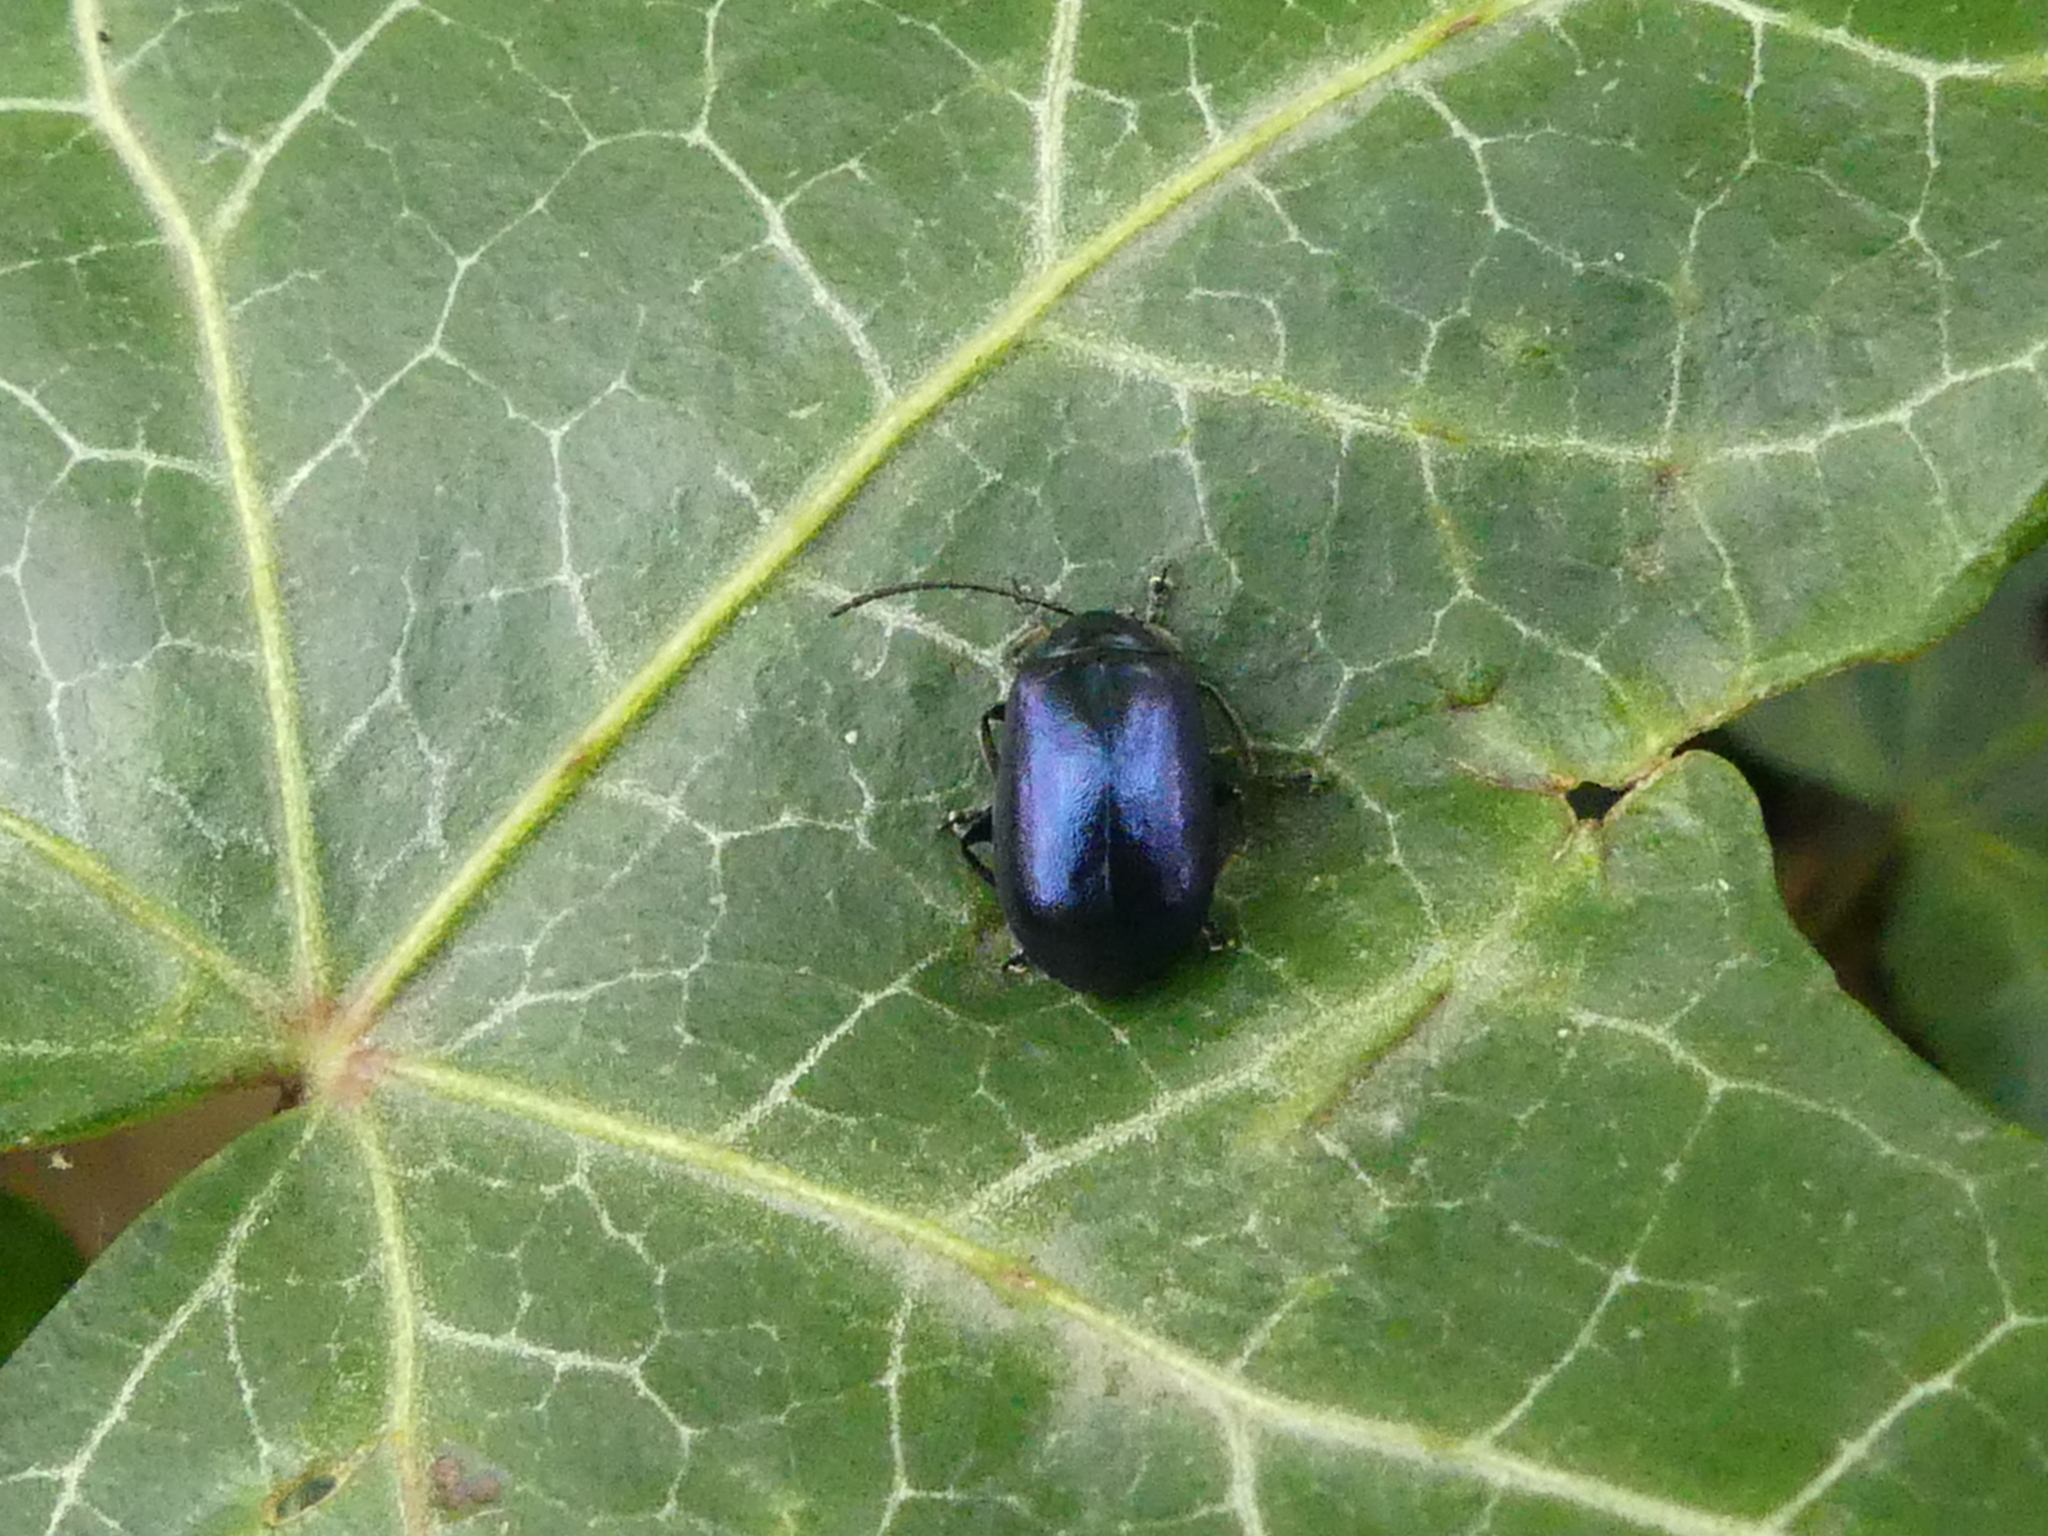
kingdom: Animalia
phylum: Arthropoda
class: Insecta
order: Coleoptera
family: Chrysomelidae
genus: Agelastica
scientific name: Agelastica alni
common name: Alder leaf beetle
